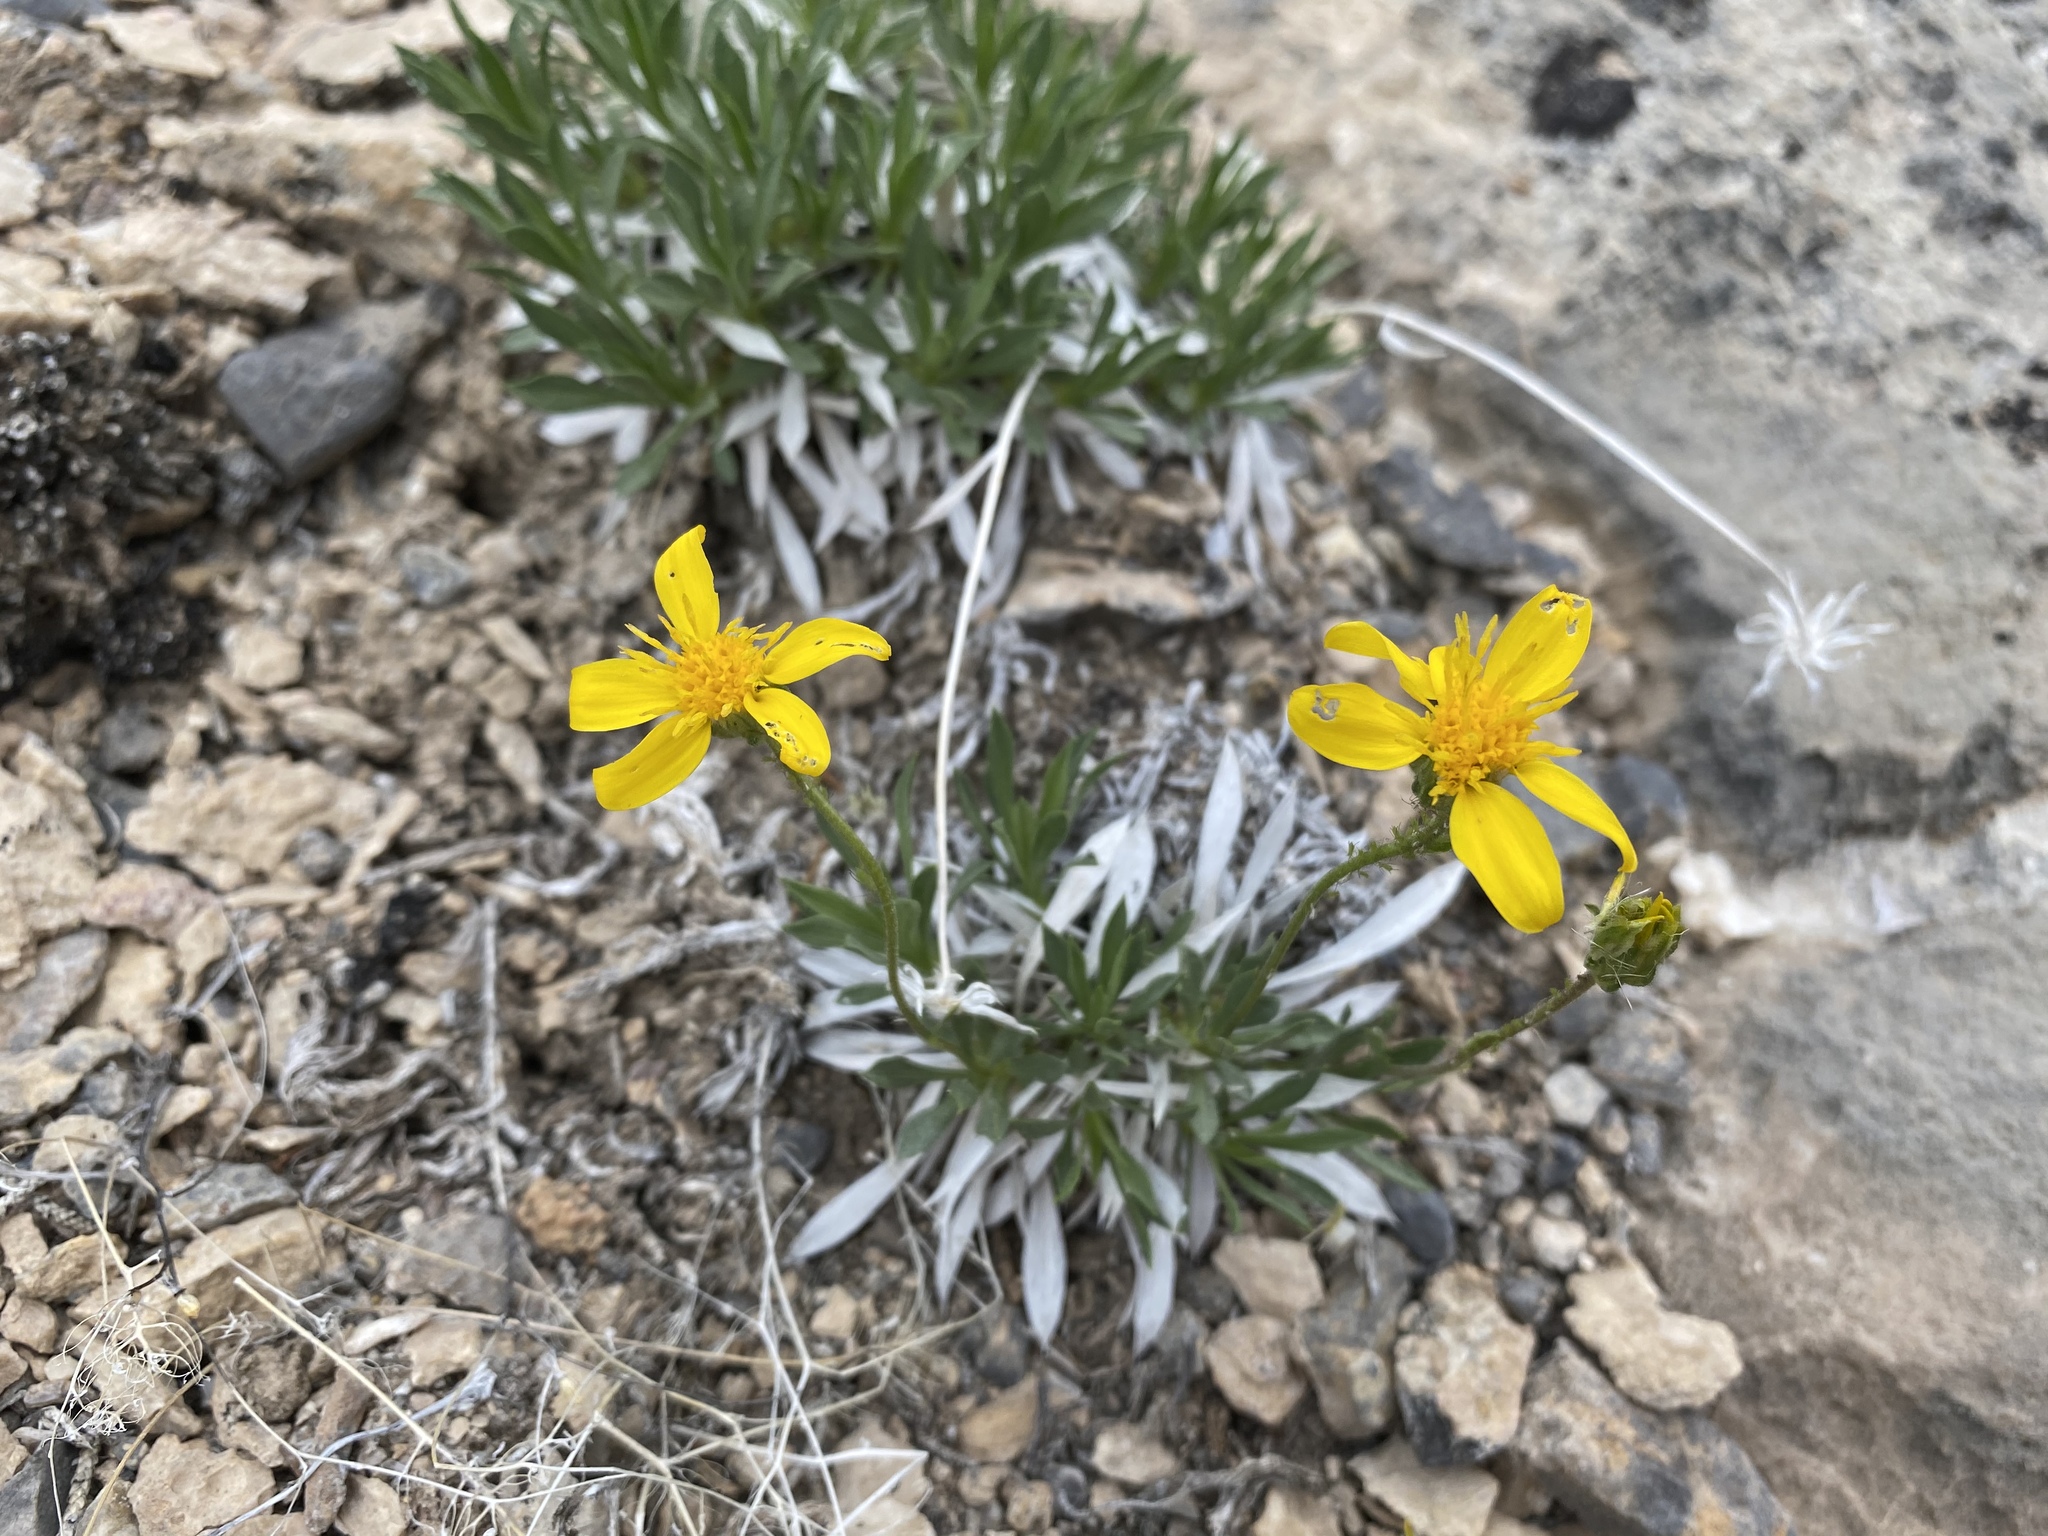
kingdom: Plantae
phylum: Tracheophyta
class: Magnoliopsida
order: Asterales
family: Asteraceae
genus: Stenotus
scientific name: Stenotus acaulis
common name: Stemless goldenweed
